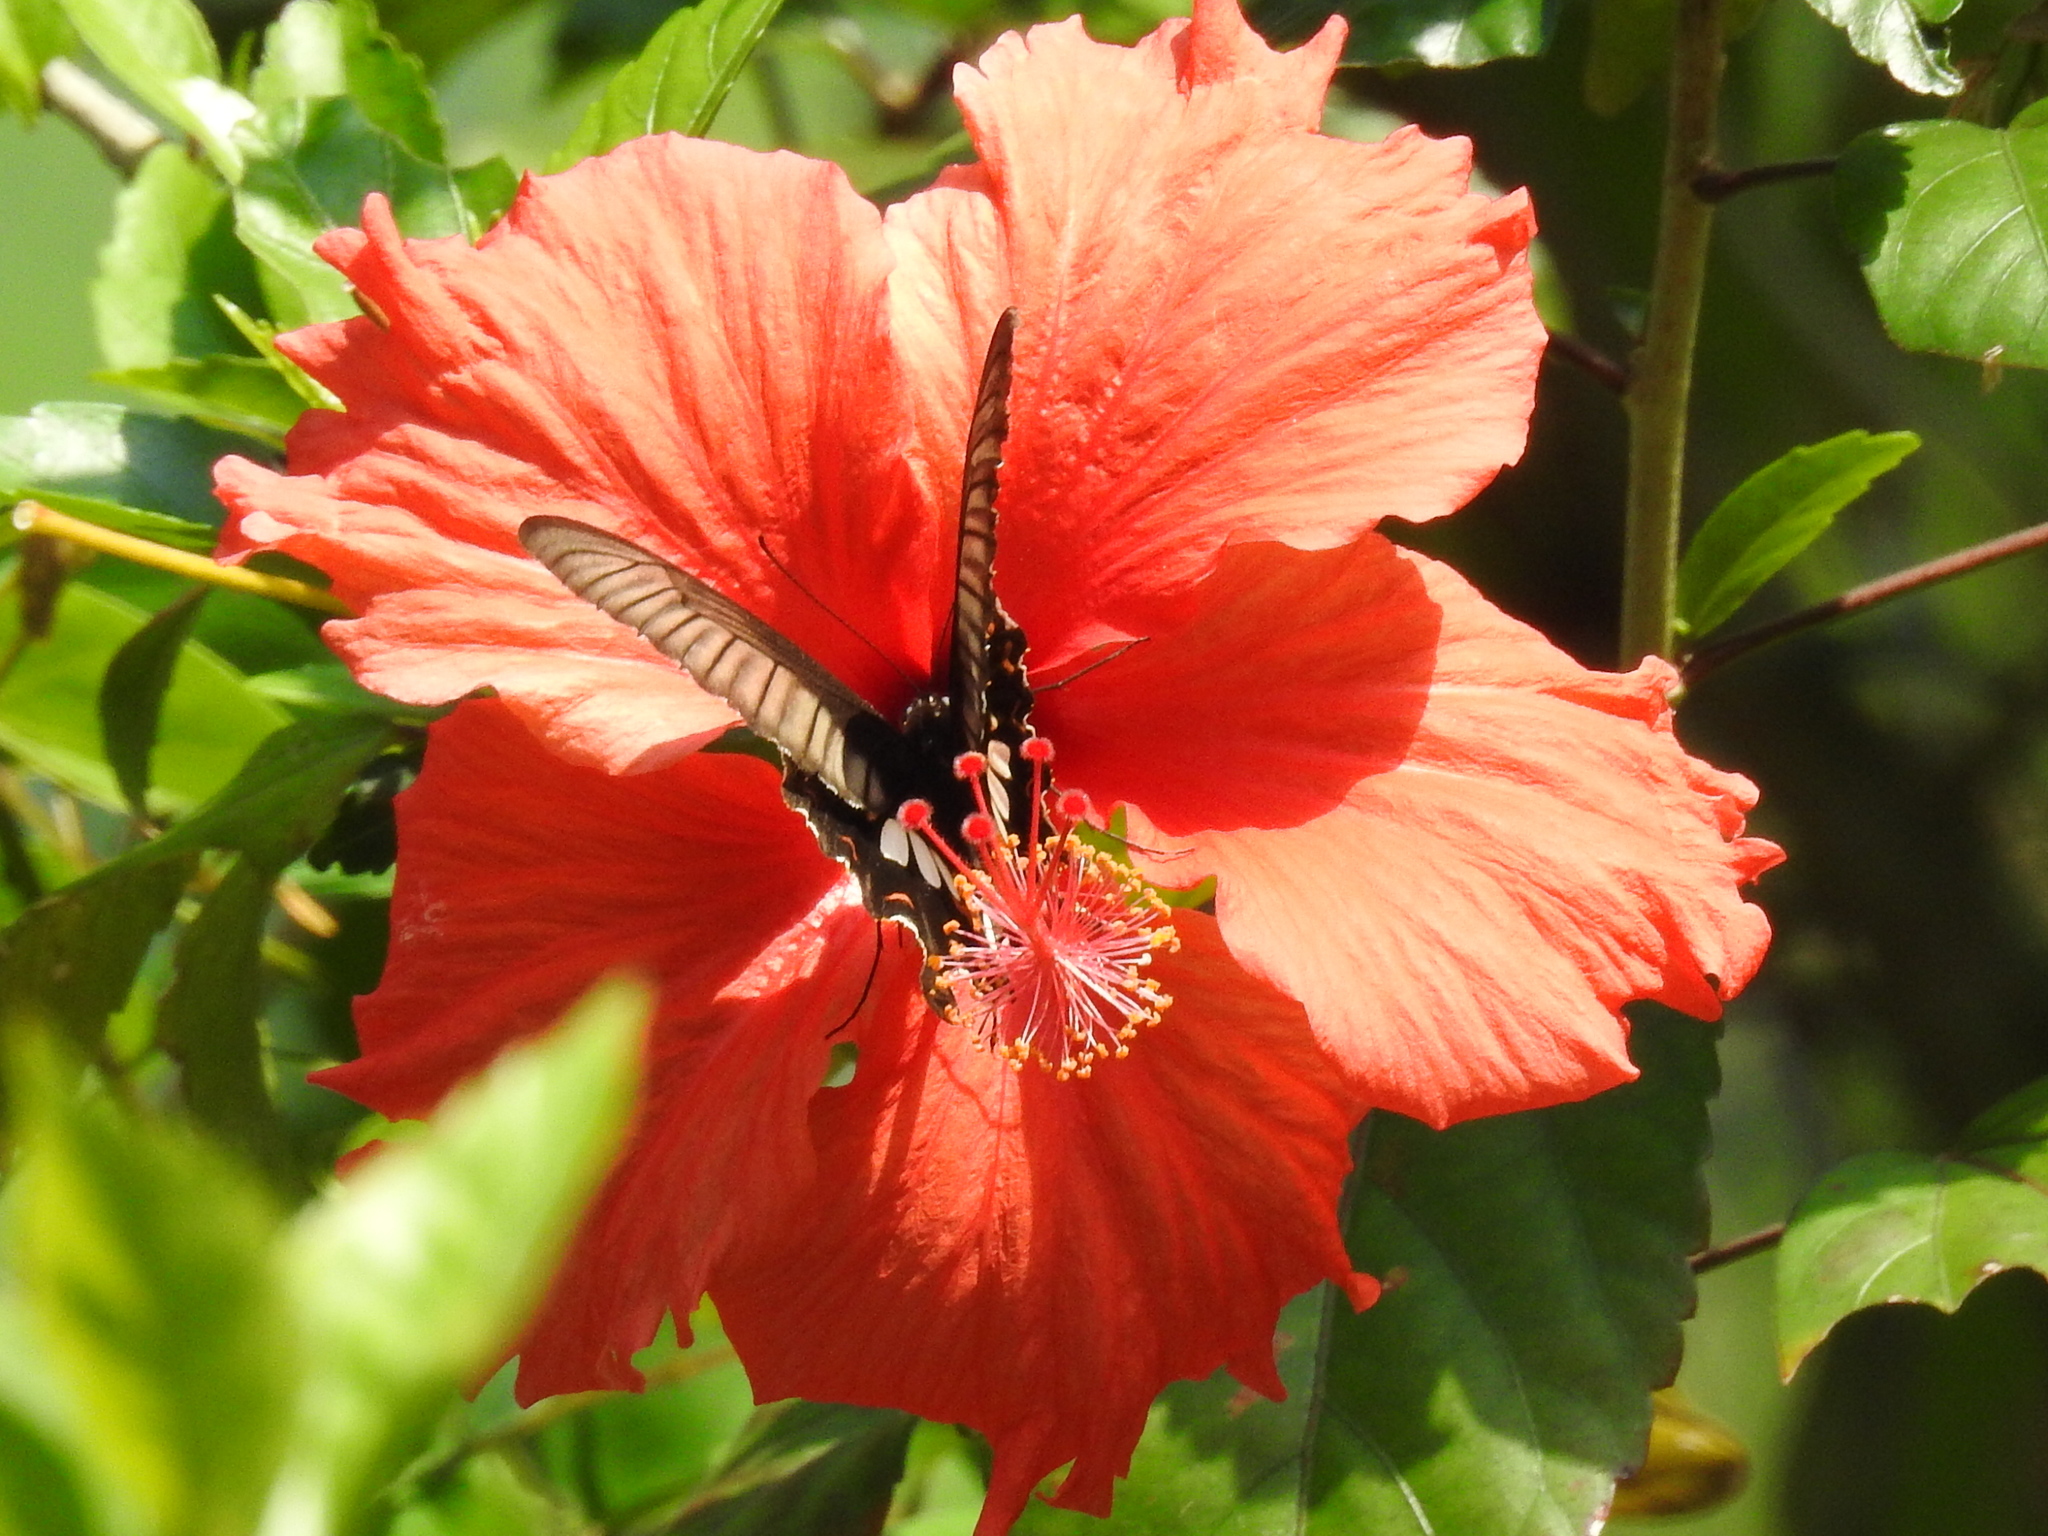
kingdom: Animalia
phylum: Arthropoda
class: Insecta
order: Lepidoptera
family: Papilionidae
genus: Papilio
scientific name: Papilio polytes
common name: Common mormon
